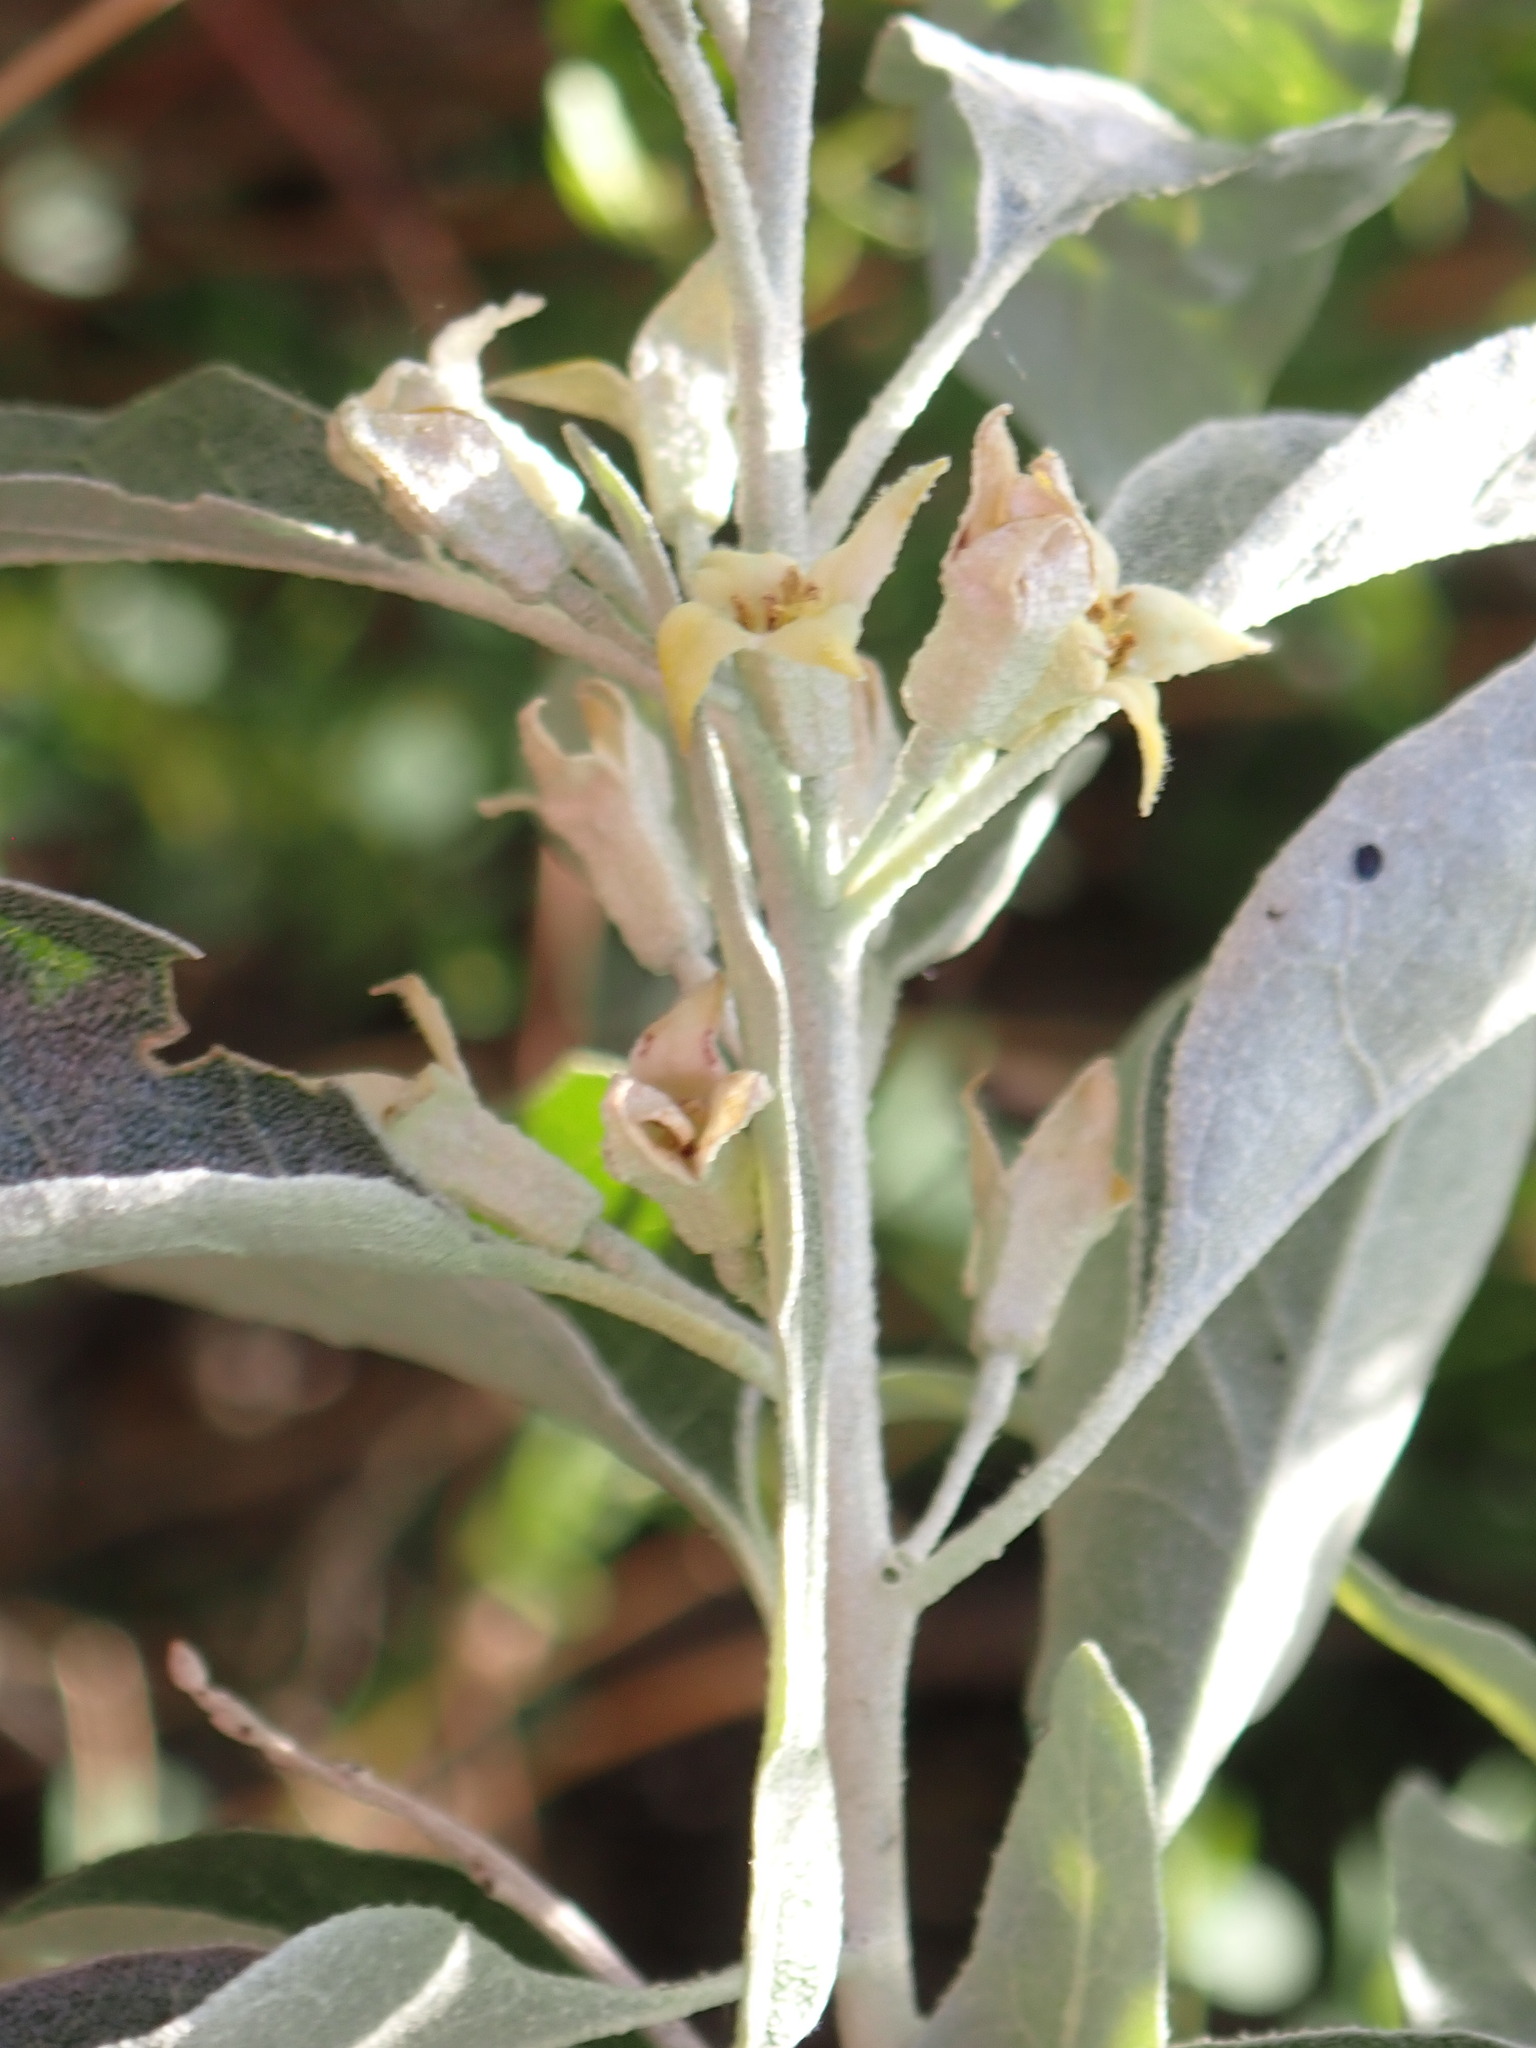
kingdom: Plantae
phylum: Tracheophyta
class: Magnoliopsida
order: Rosales
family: Elaeagnaceae
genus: Elaeagnus
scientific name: Elaeagnus angustifolia
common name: Russian olive
